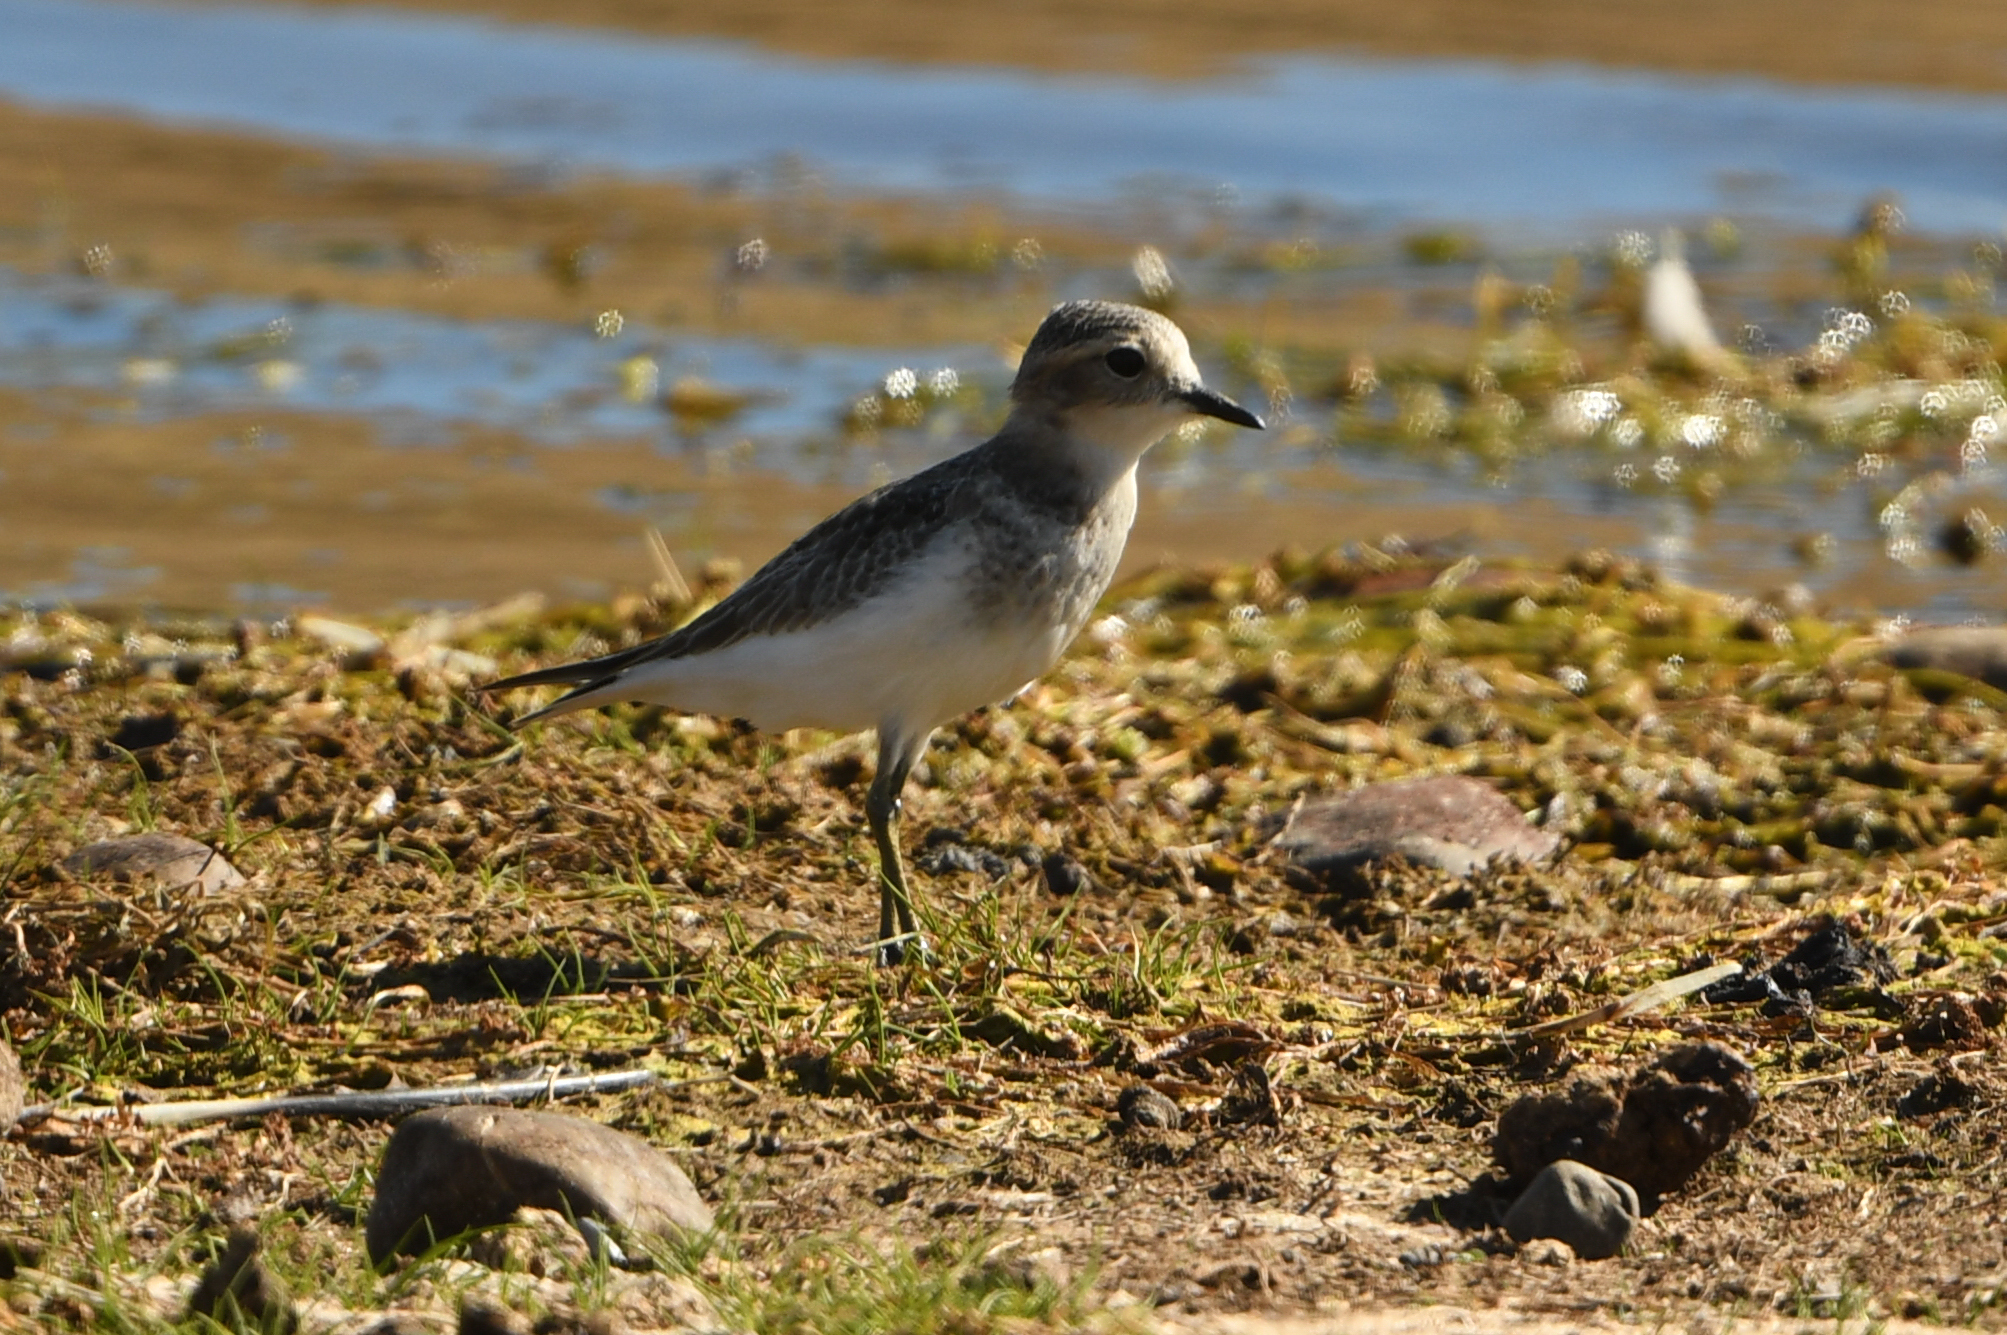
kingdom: Animalia
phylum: Chordata
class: Aves
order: Charadriiformes
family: Charadriidae
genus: Anarhynchus
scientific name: Anarhynchus
